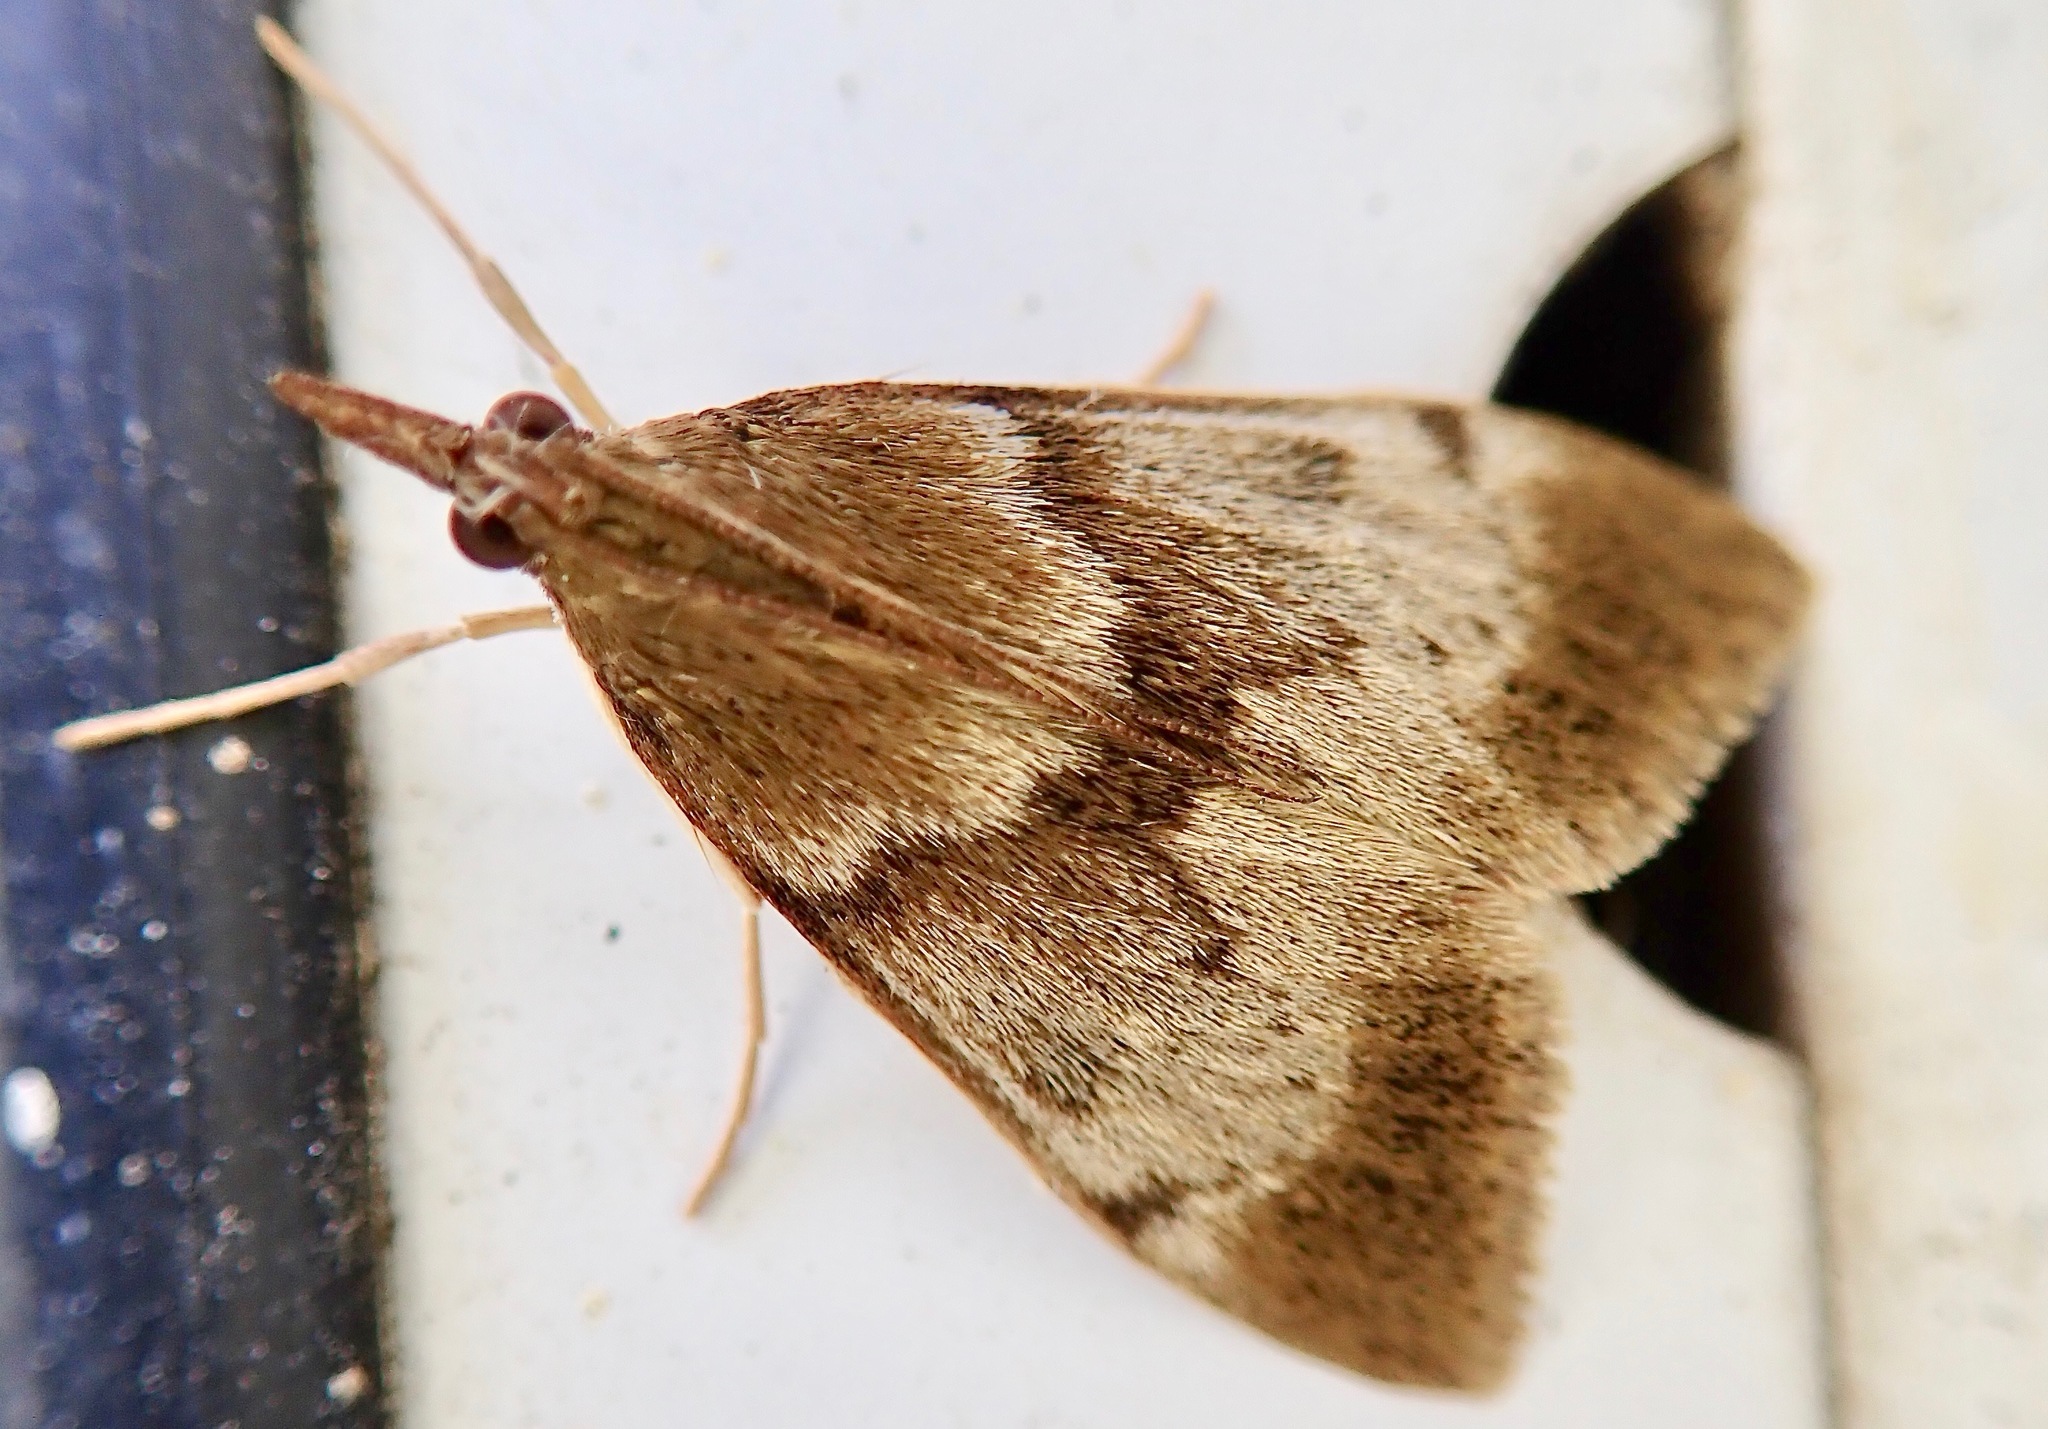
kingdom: Animalia
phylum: Arthropoda
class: Insecta
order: Lepidoptera
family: Crambidae
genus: Uresiphita
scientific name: Uresiphita
